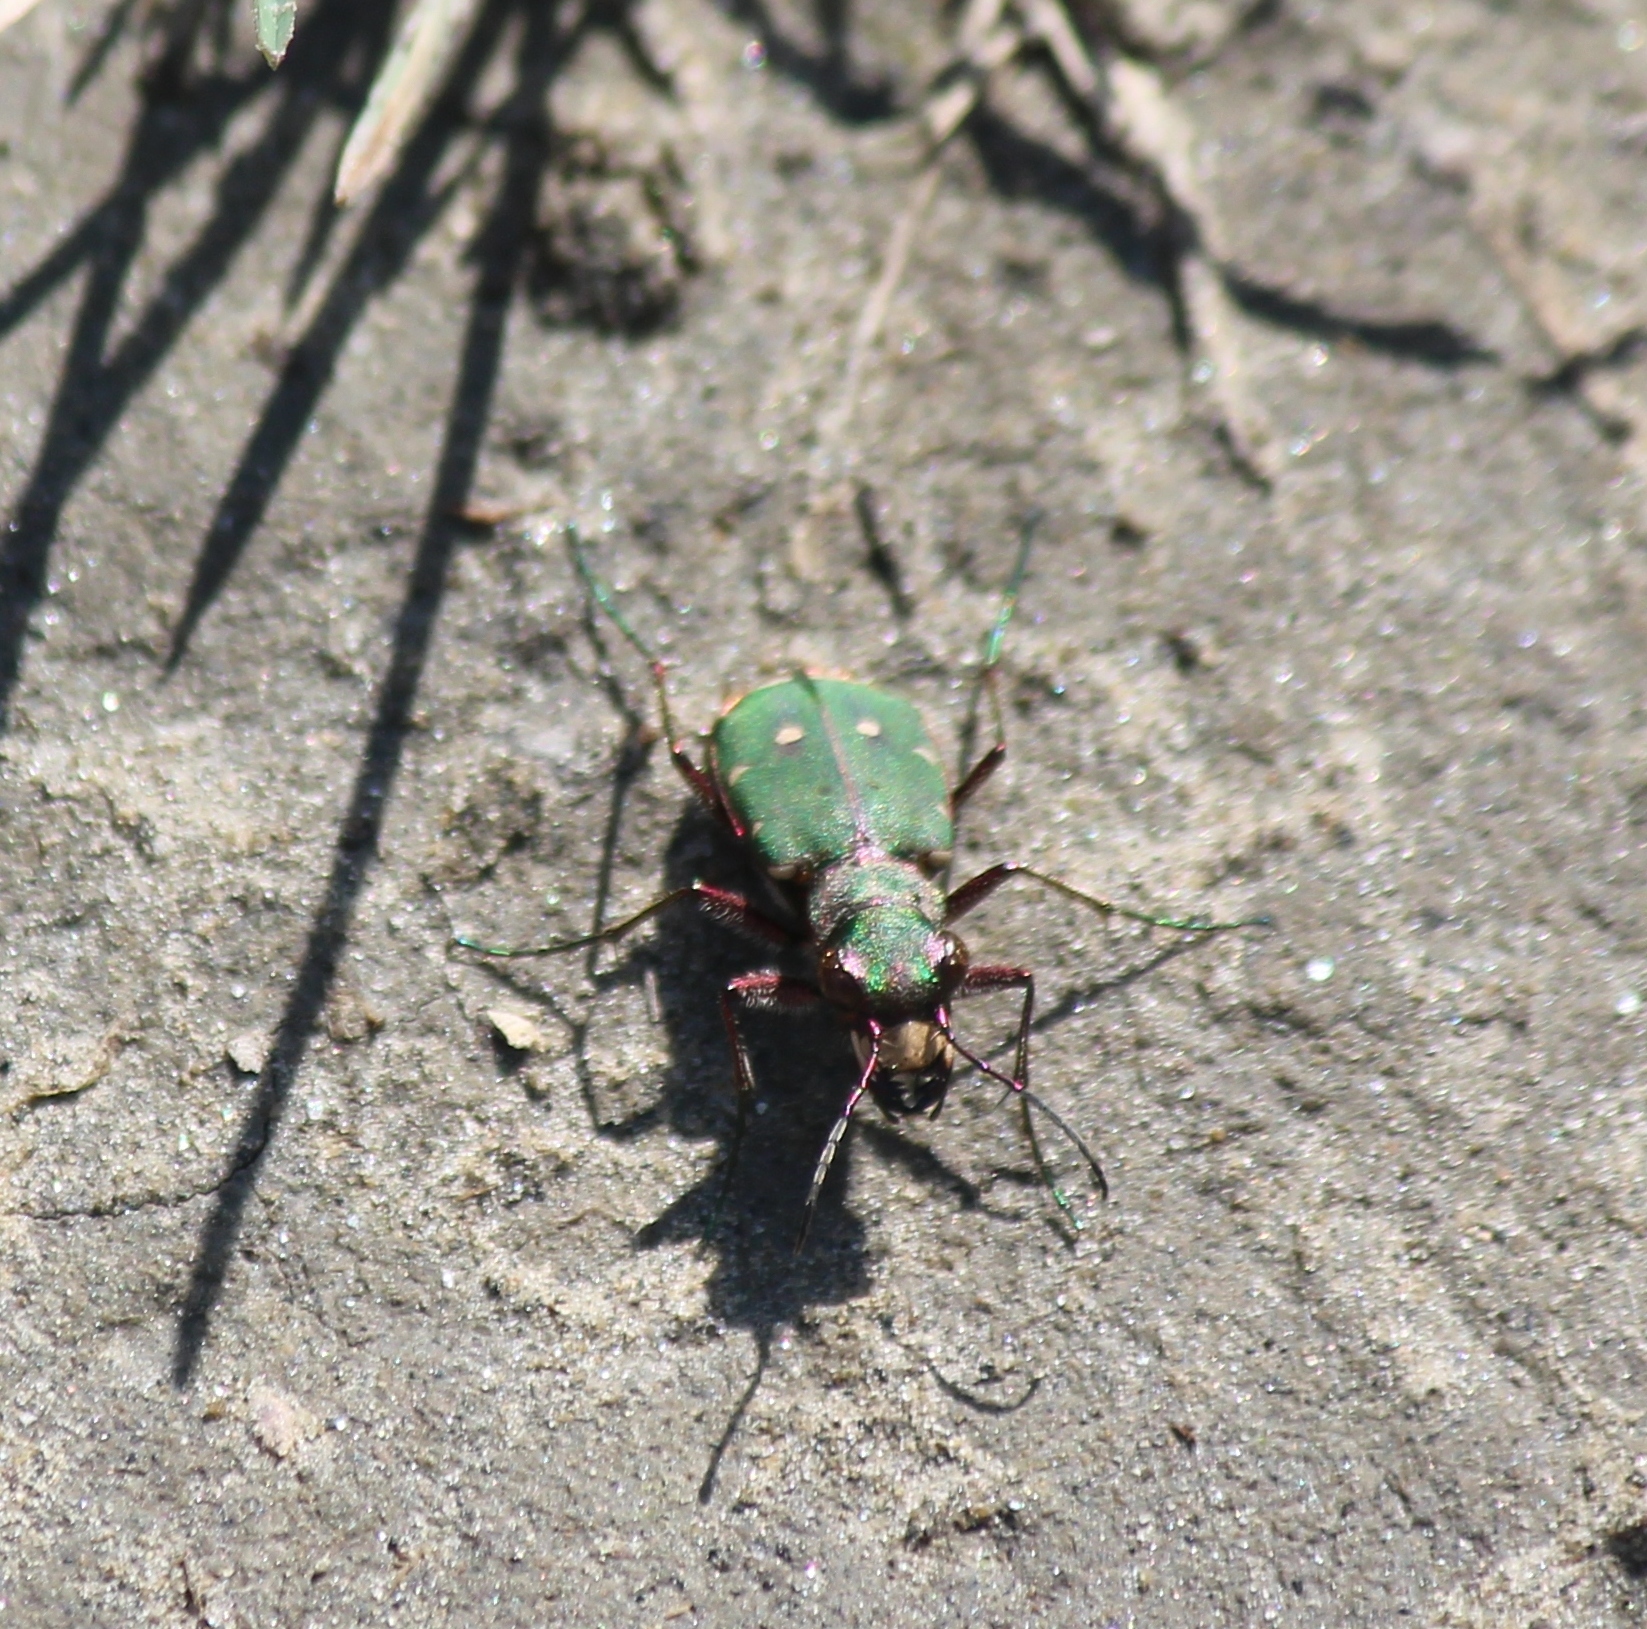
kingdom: Animalia
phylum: Arthropoda
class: Insecta
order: Coleoptera
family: Carabidae
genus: Cicindela
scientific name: Cicindela campestris
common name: Common tiger beetle
